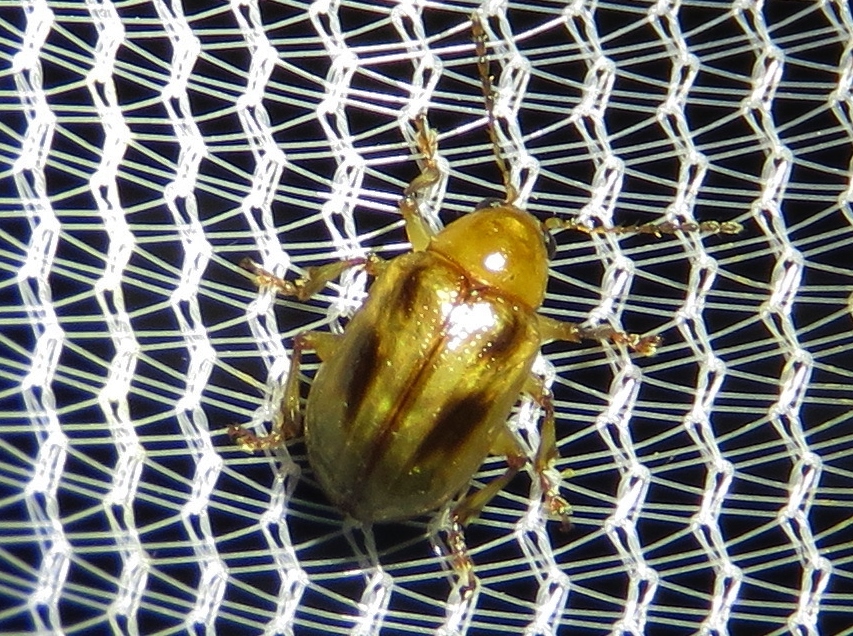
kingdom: Animalia
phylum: Arthropoda
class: Insecta
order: Coleoptera
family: Chrysomelidae
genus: Paria
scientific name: Paria quadriguttata
